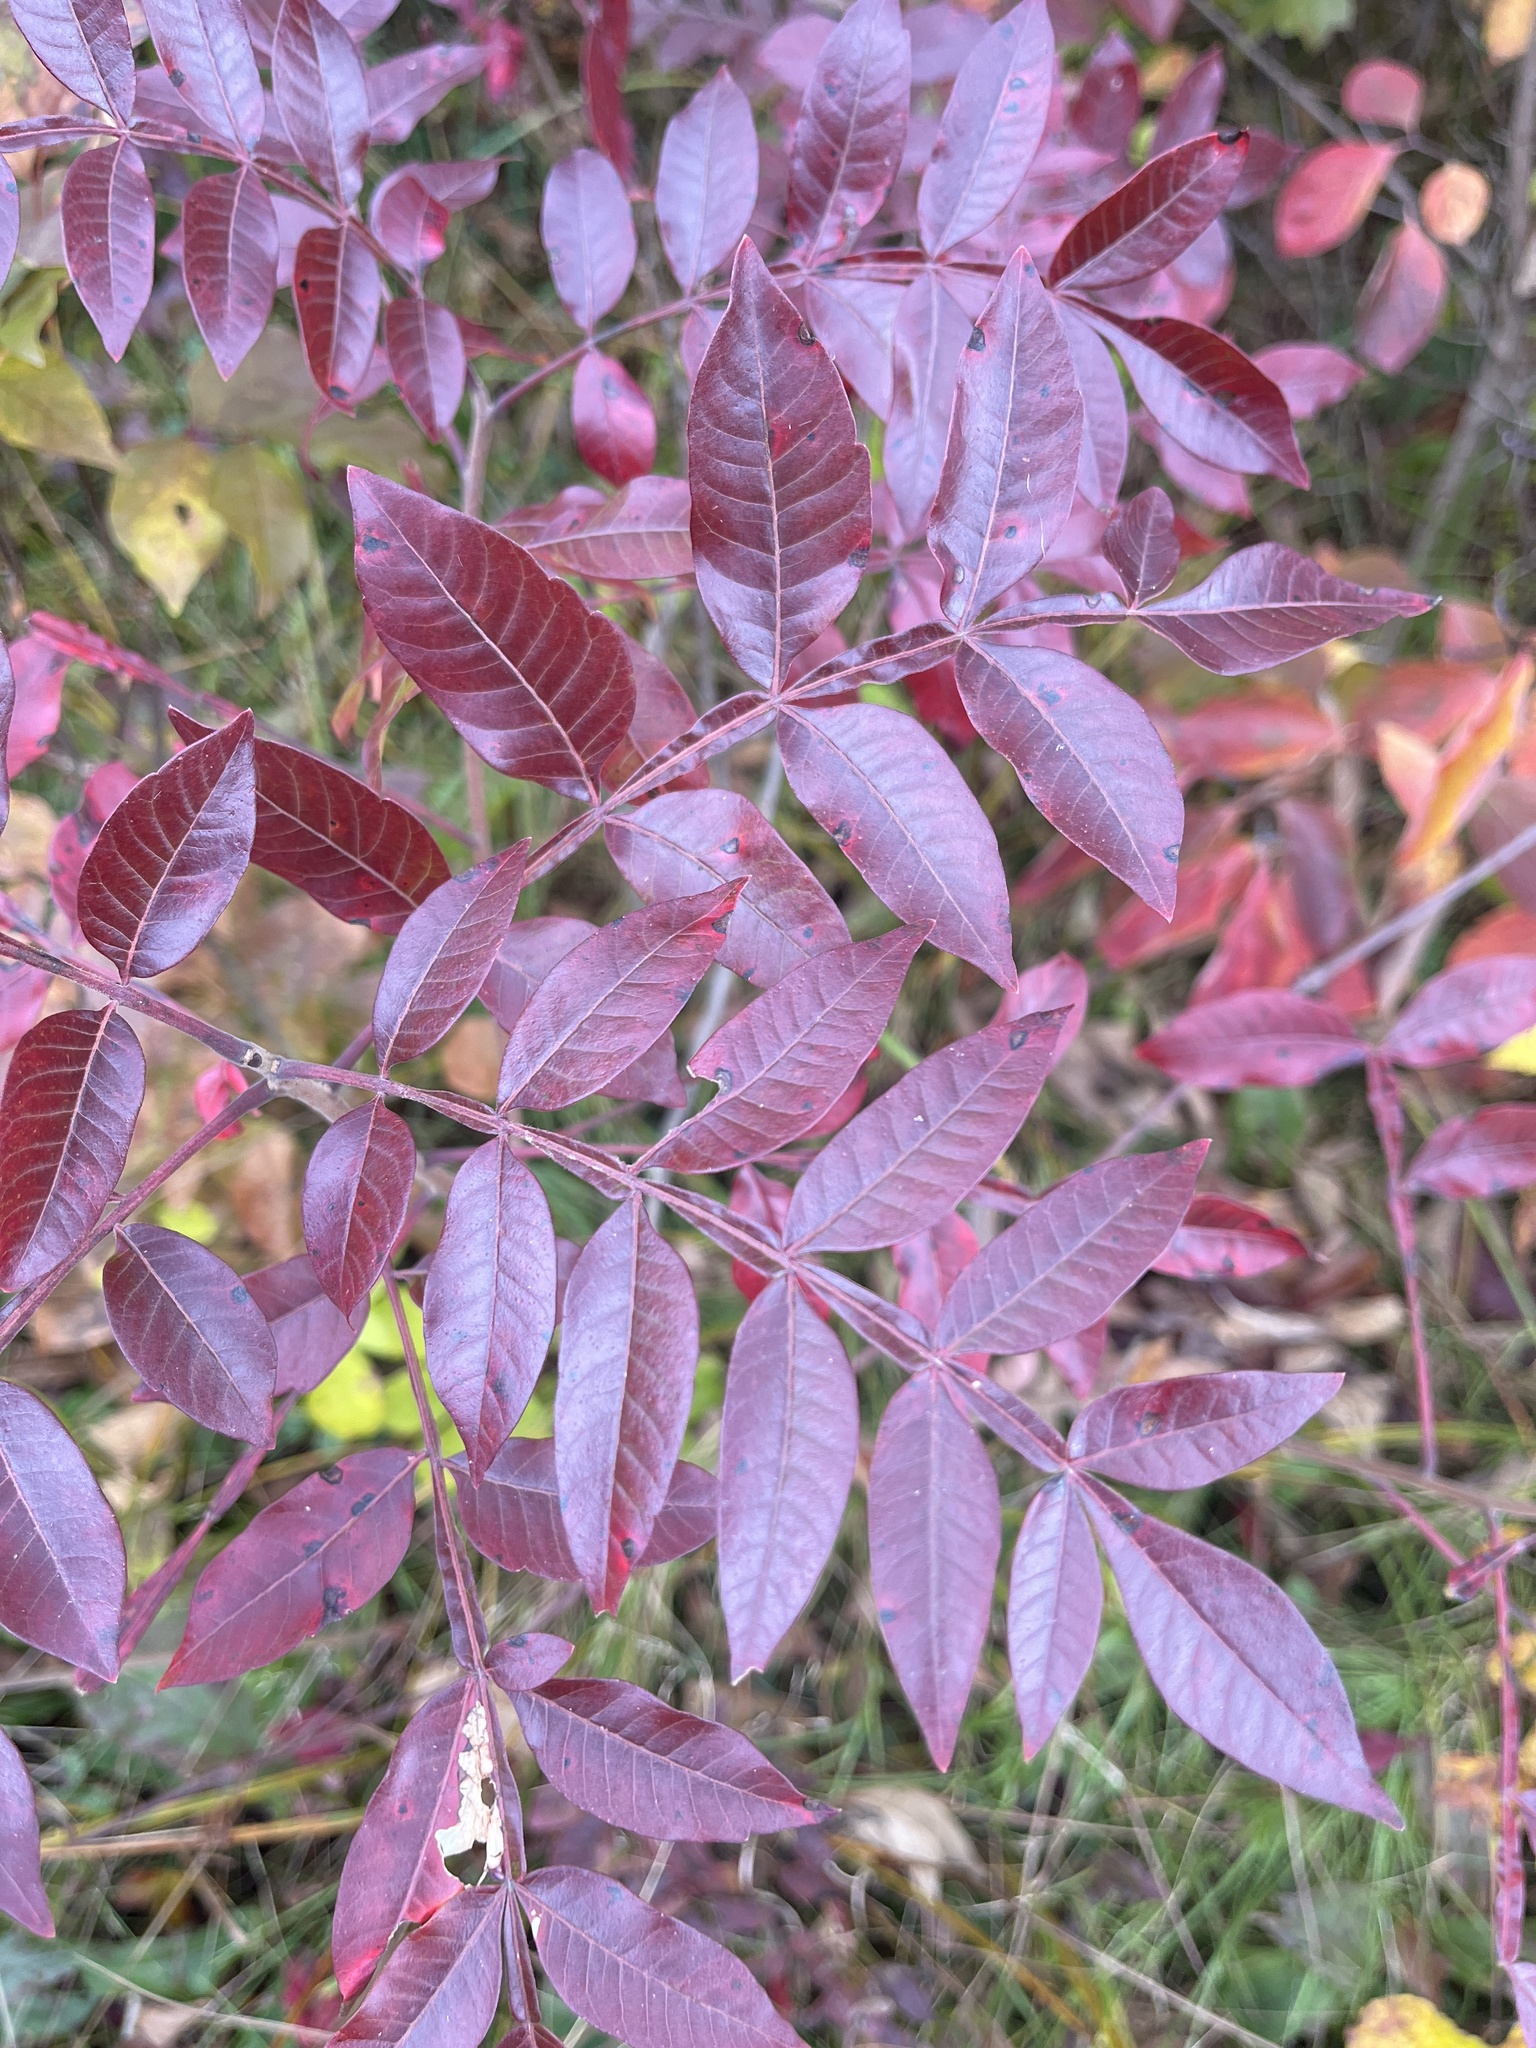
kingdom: Plantae
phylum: Tracheophyta
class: Magnoliopsida
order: Sapindales
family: Anacardiaceae
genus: Rhus
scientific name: Rhus copallina
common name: Shining sumac
